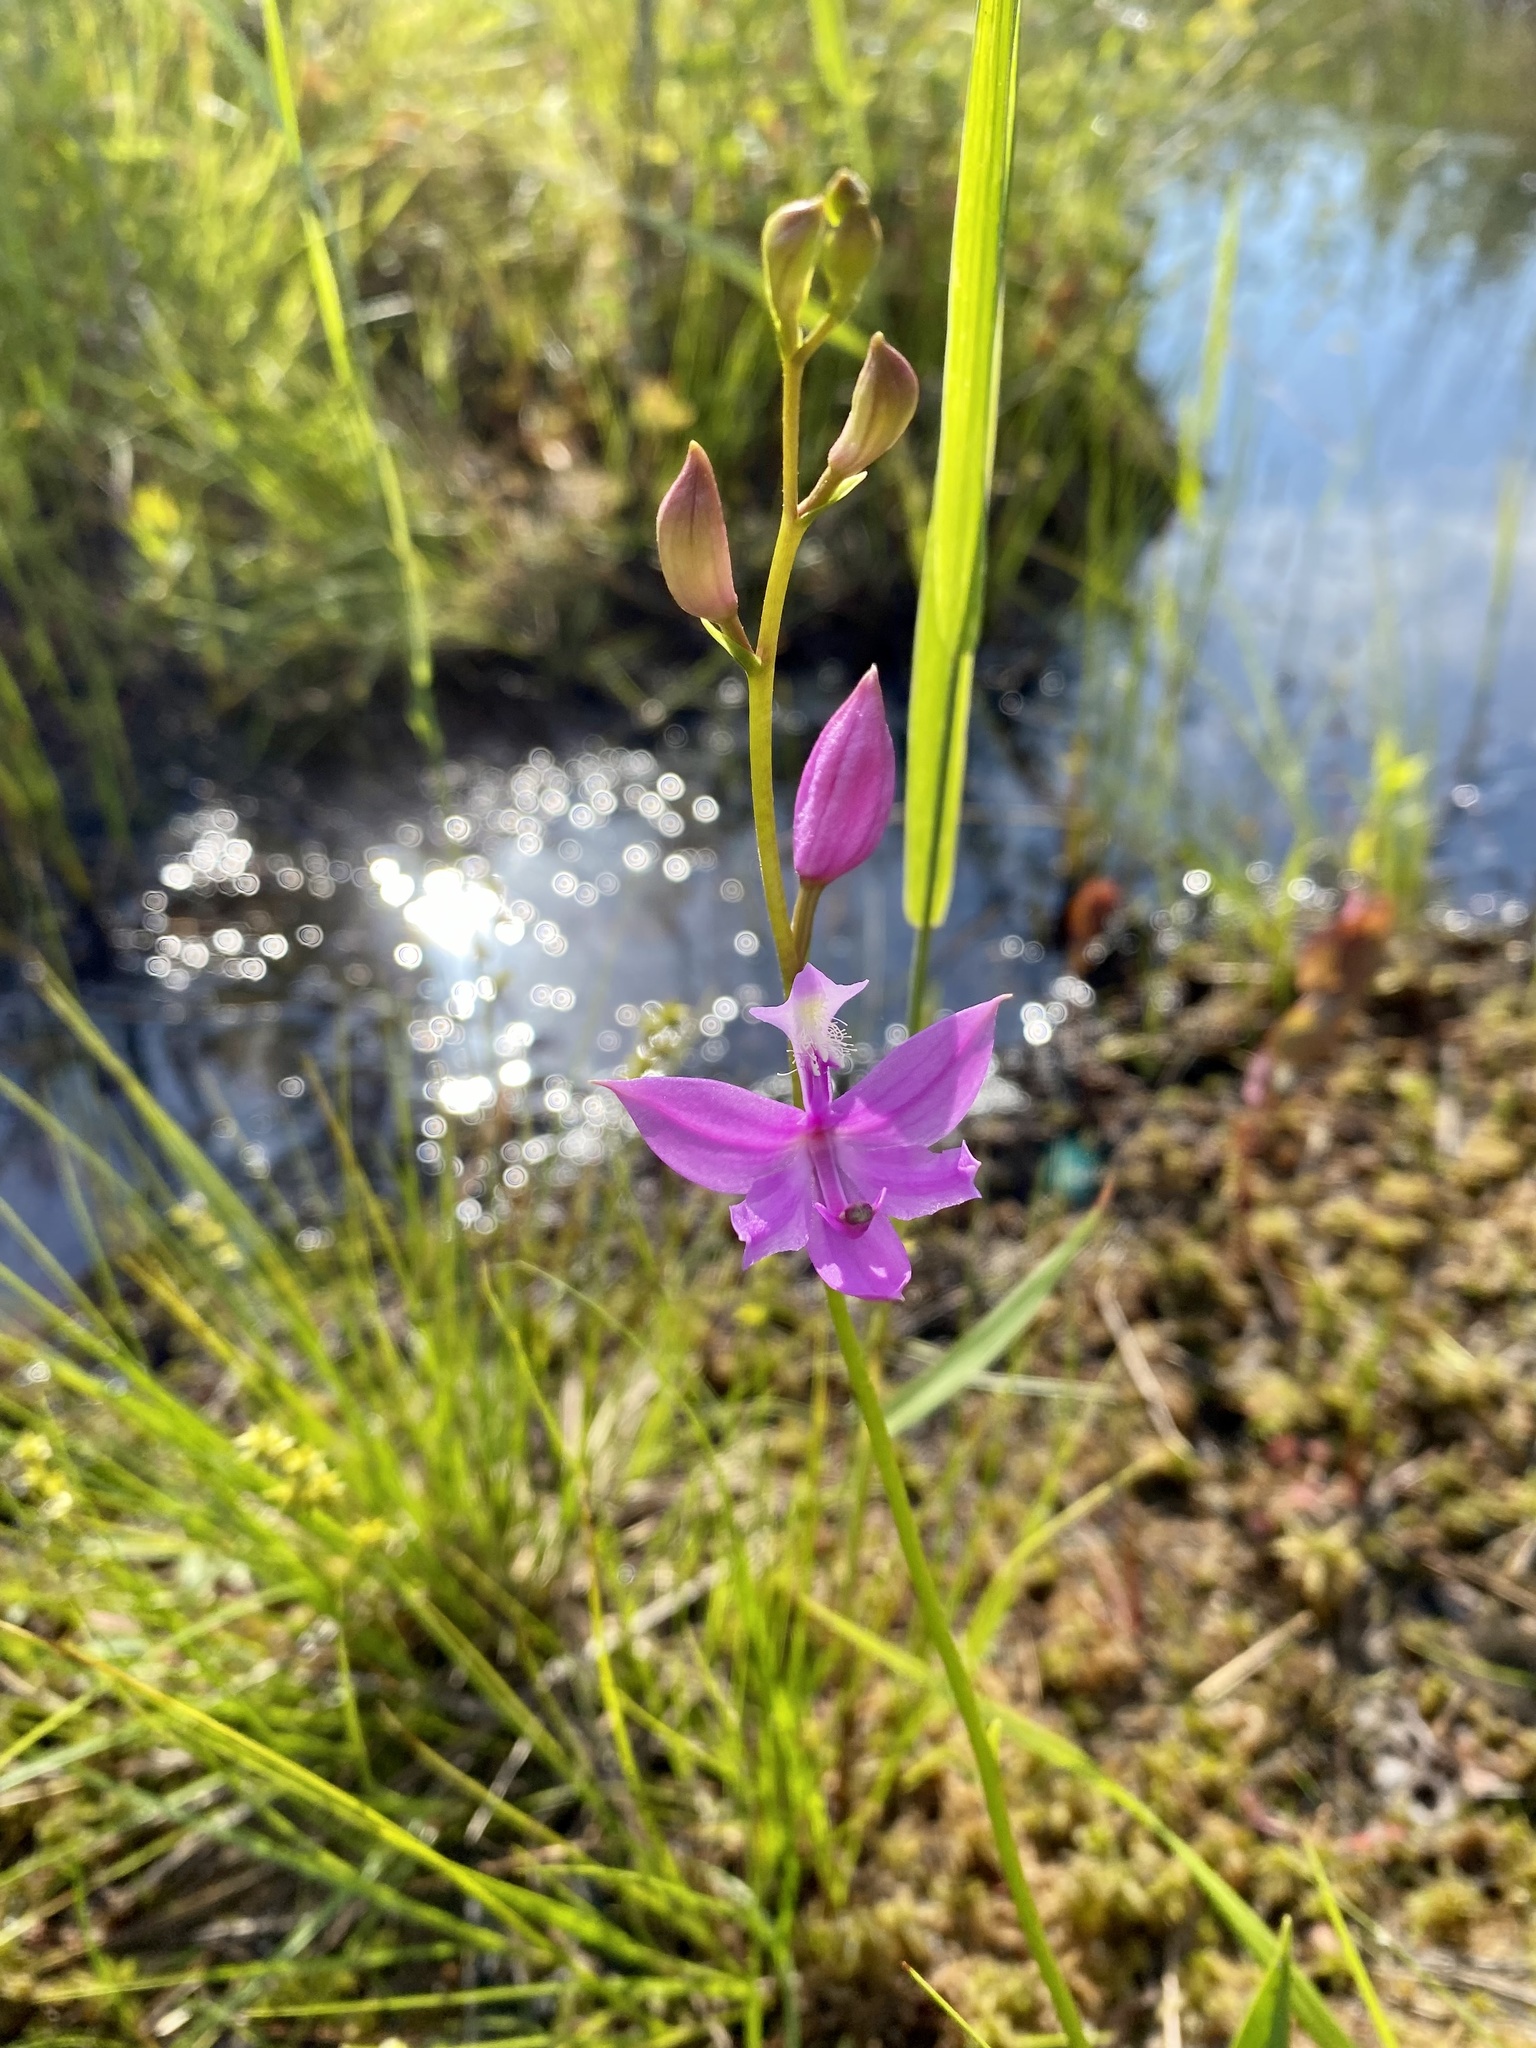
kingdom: Plantae
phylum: Tracheophyta
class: Liliopsida
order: Asparagales
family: Orchidaceae
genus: Calopogon
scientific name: Calopogon tuberosus
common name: Grass-pink
